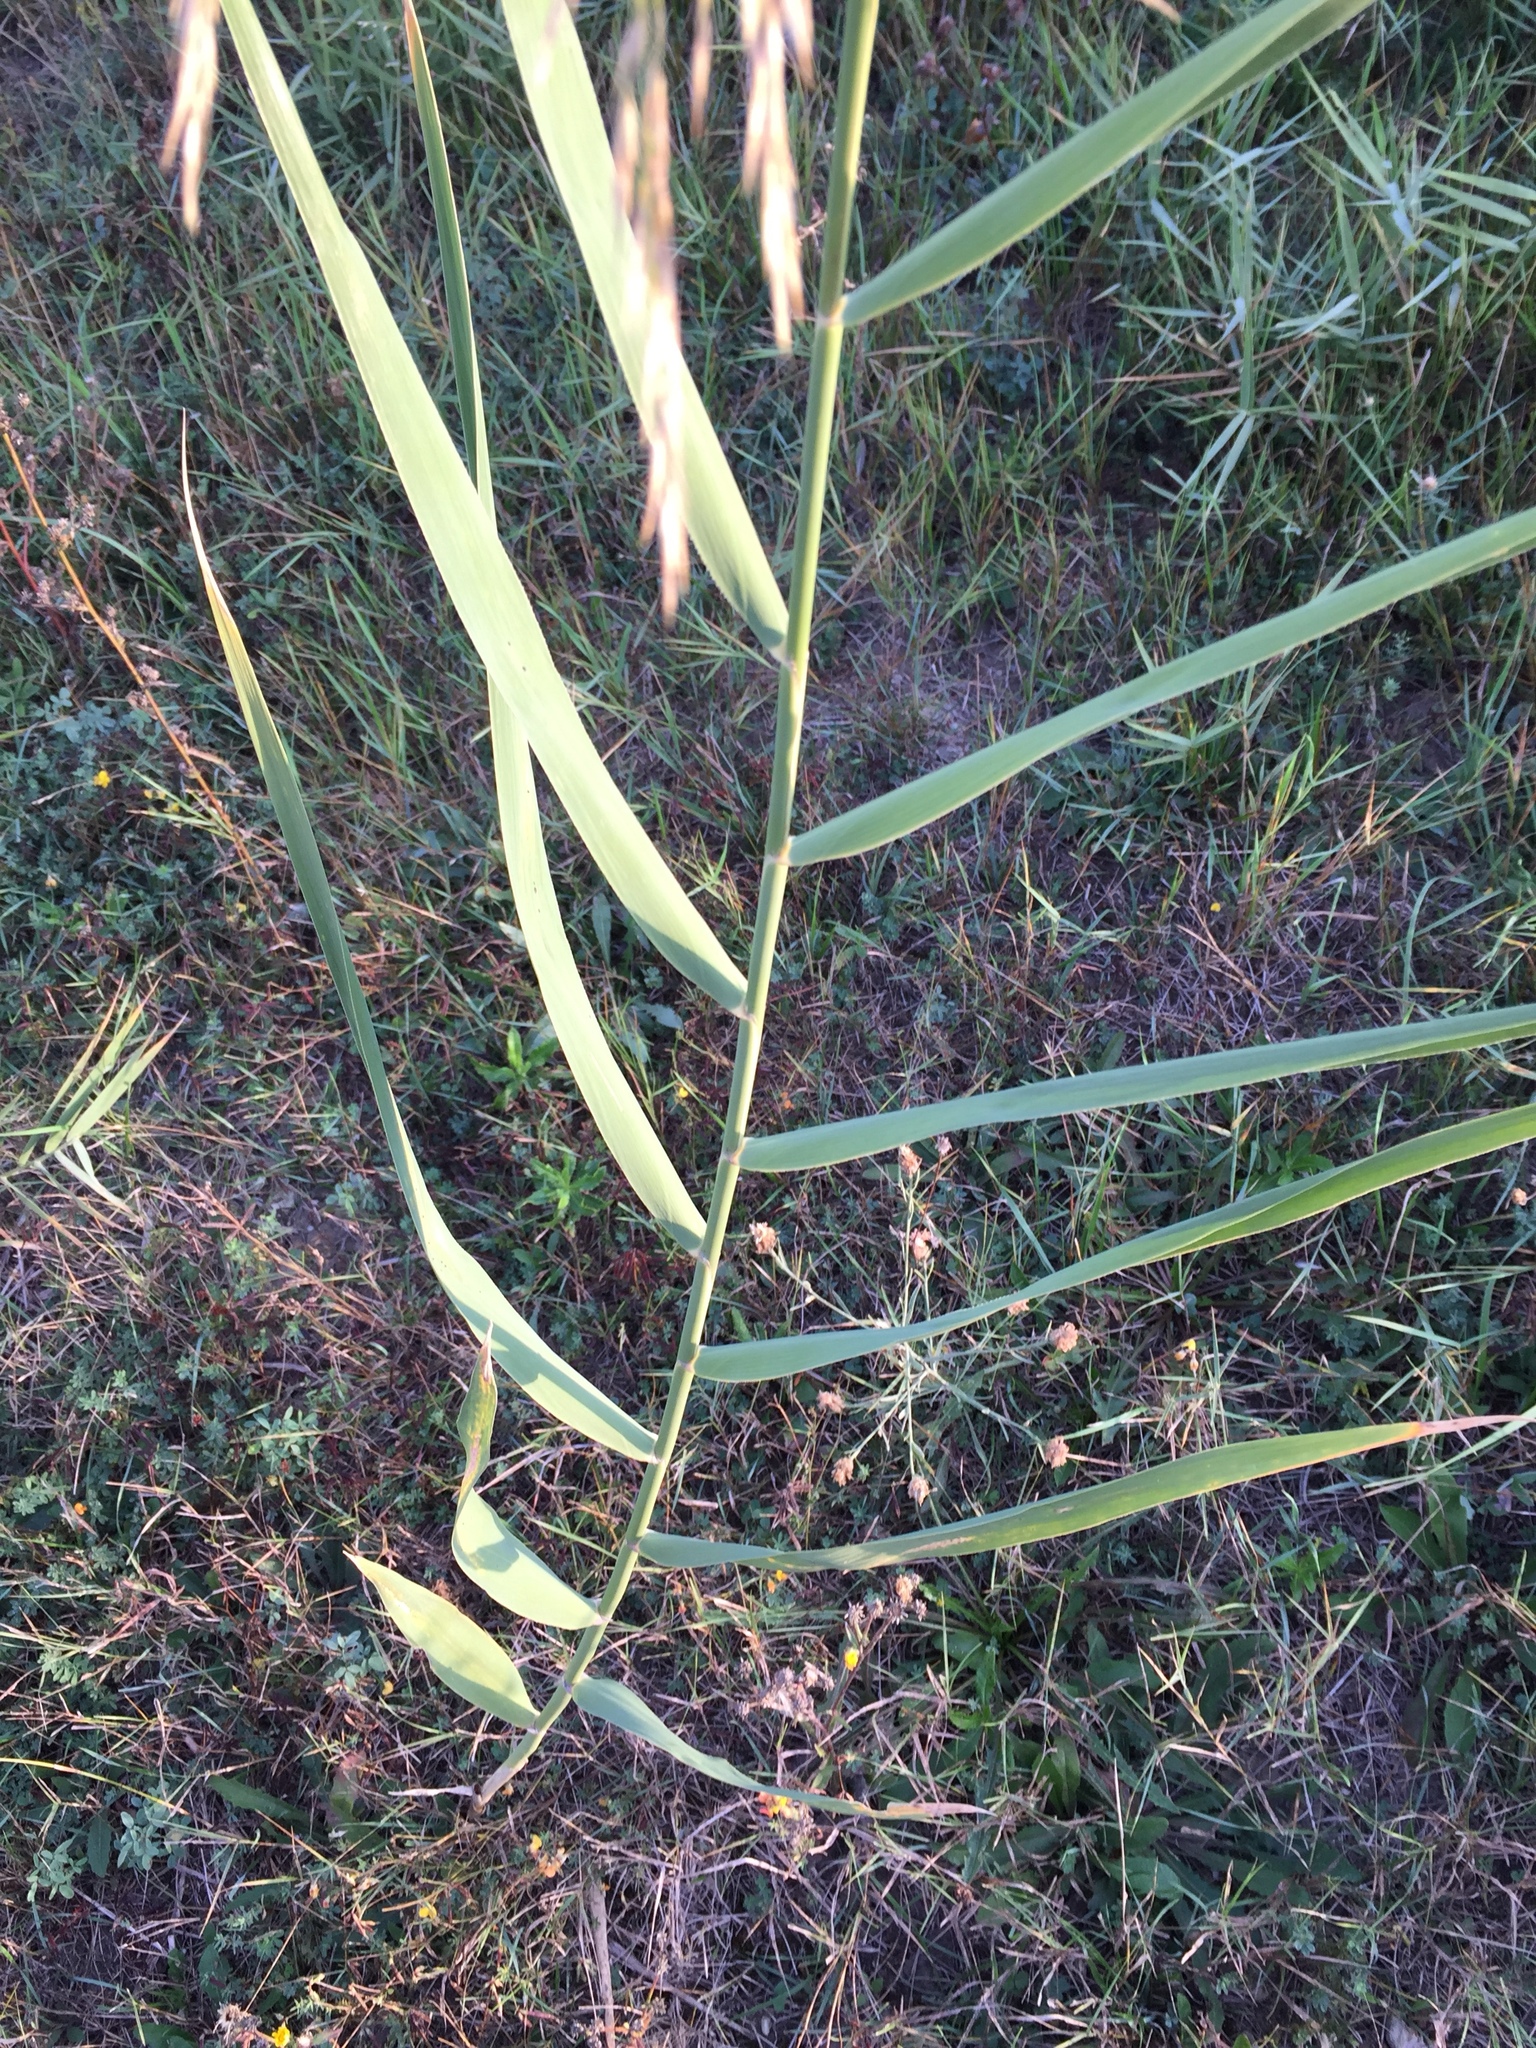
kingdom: Plantae
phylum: Tracheophyta
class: Liliopsida
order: Poales
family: Poaceae
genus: Phragmites
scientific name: Phragmites australis
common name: Common reed
